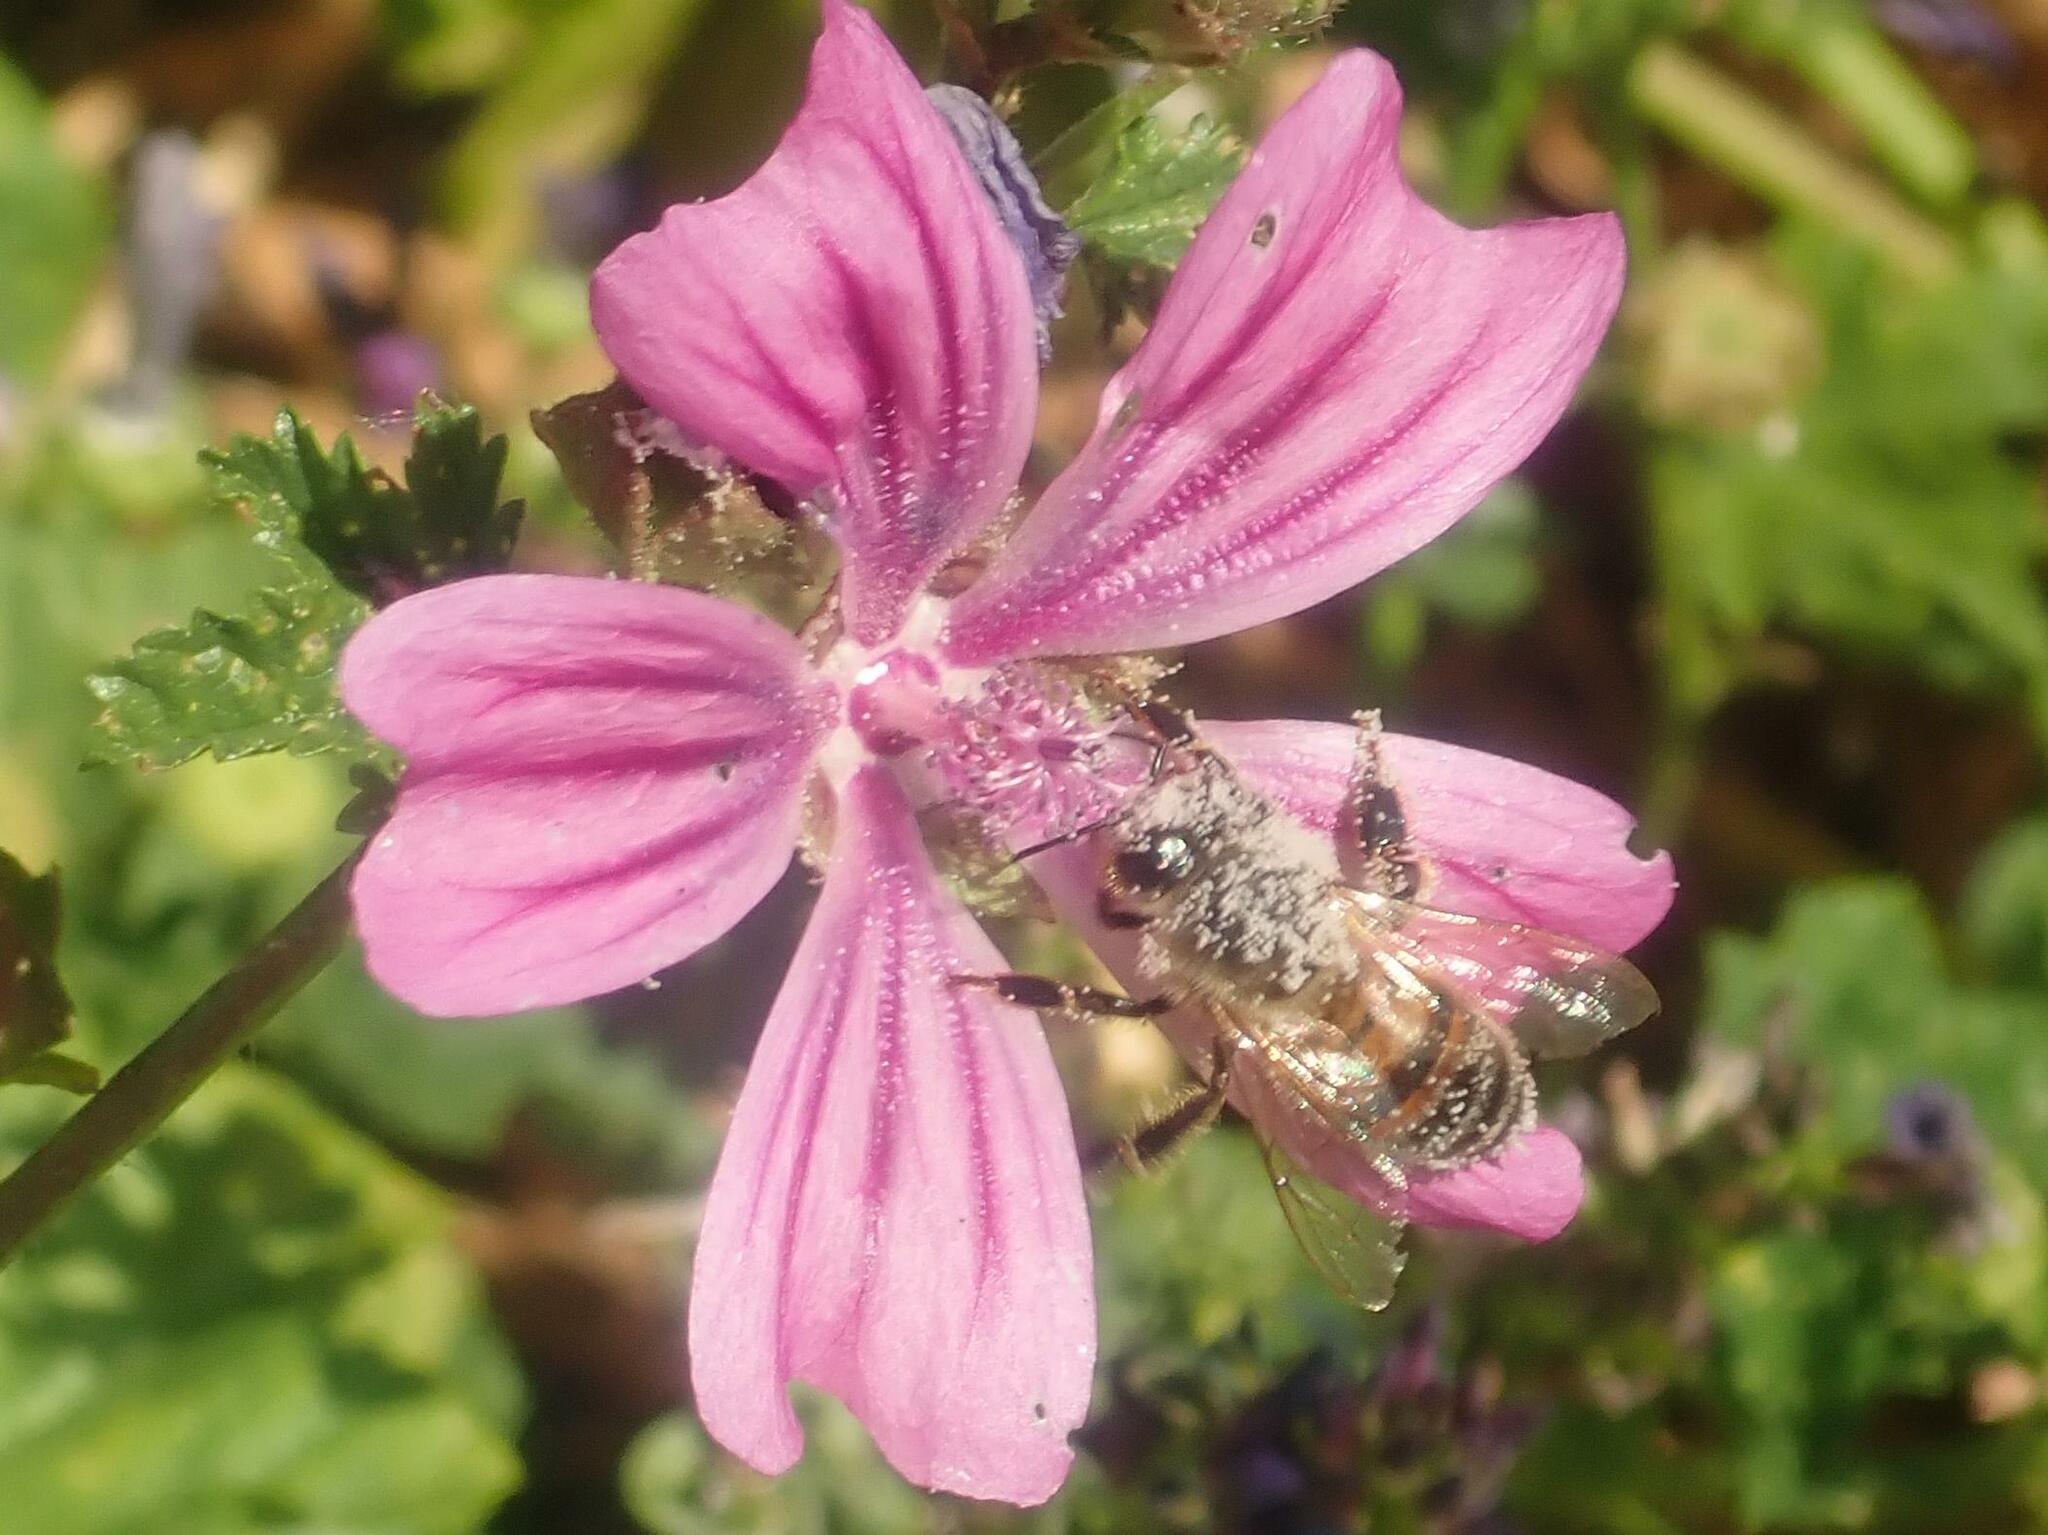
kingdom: Animalia
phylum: Arthropoda
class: Insecta
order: Hymenoptera
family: Apidae
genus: Apis
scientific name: Apis mellifera
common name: Honey bee
